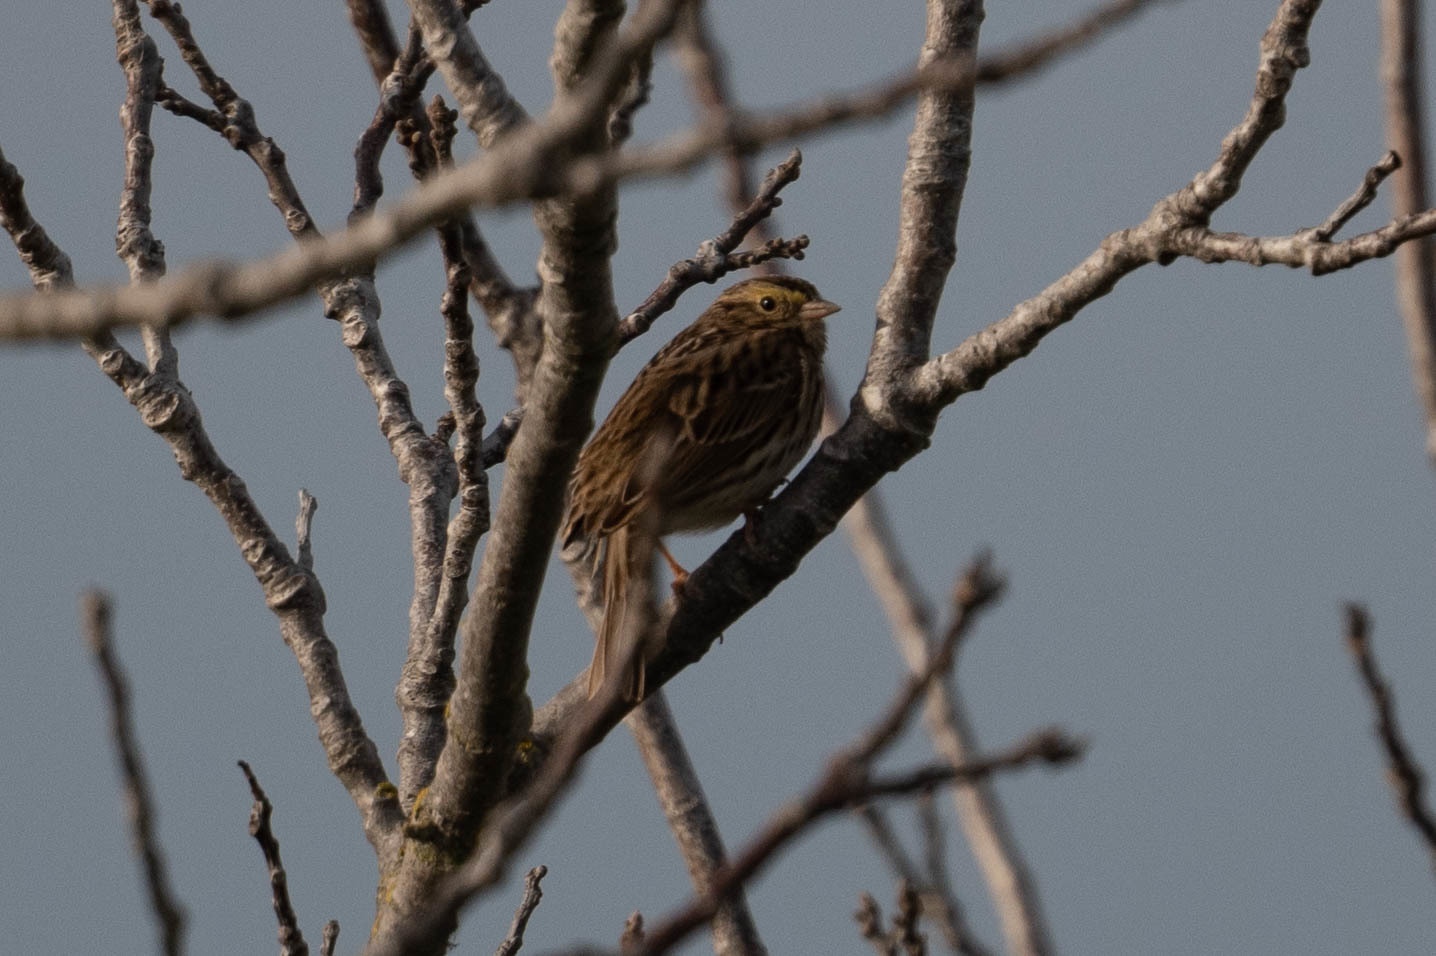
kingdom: Animalia
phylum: Chordata
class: Aves
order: Passeriformes
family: Passerellidae
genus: Passerculus
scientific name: Passerculus sandwichensis
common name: Savannah sparrow
